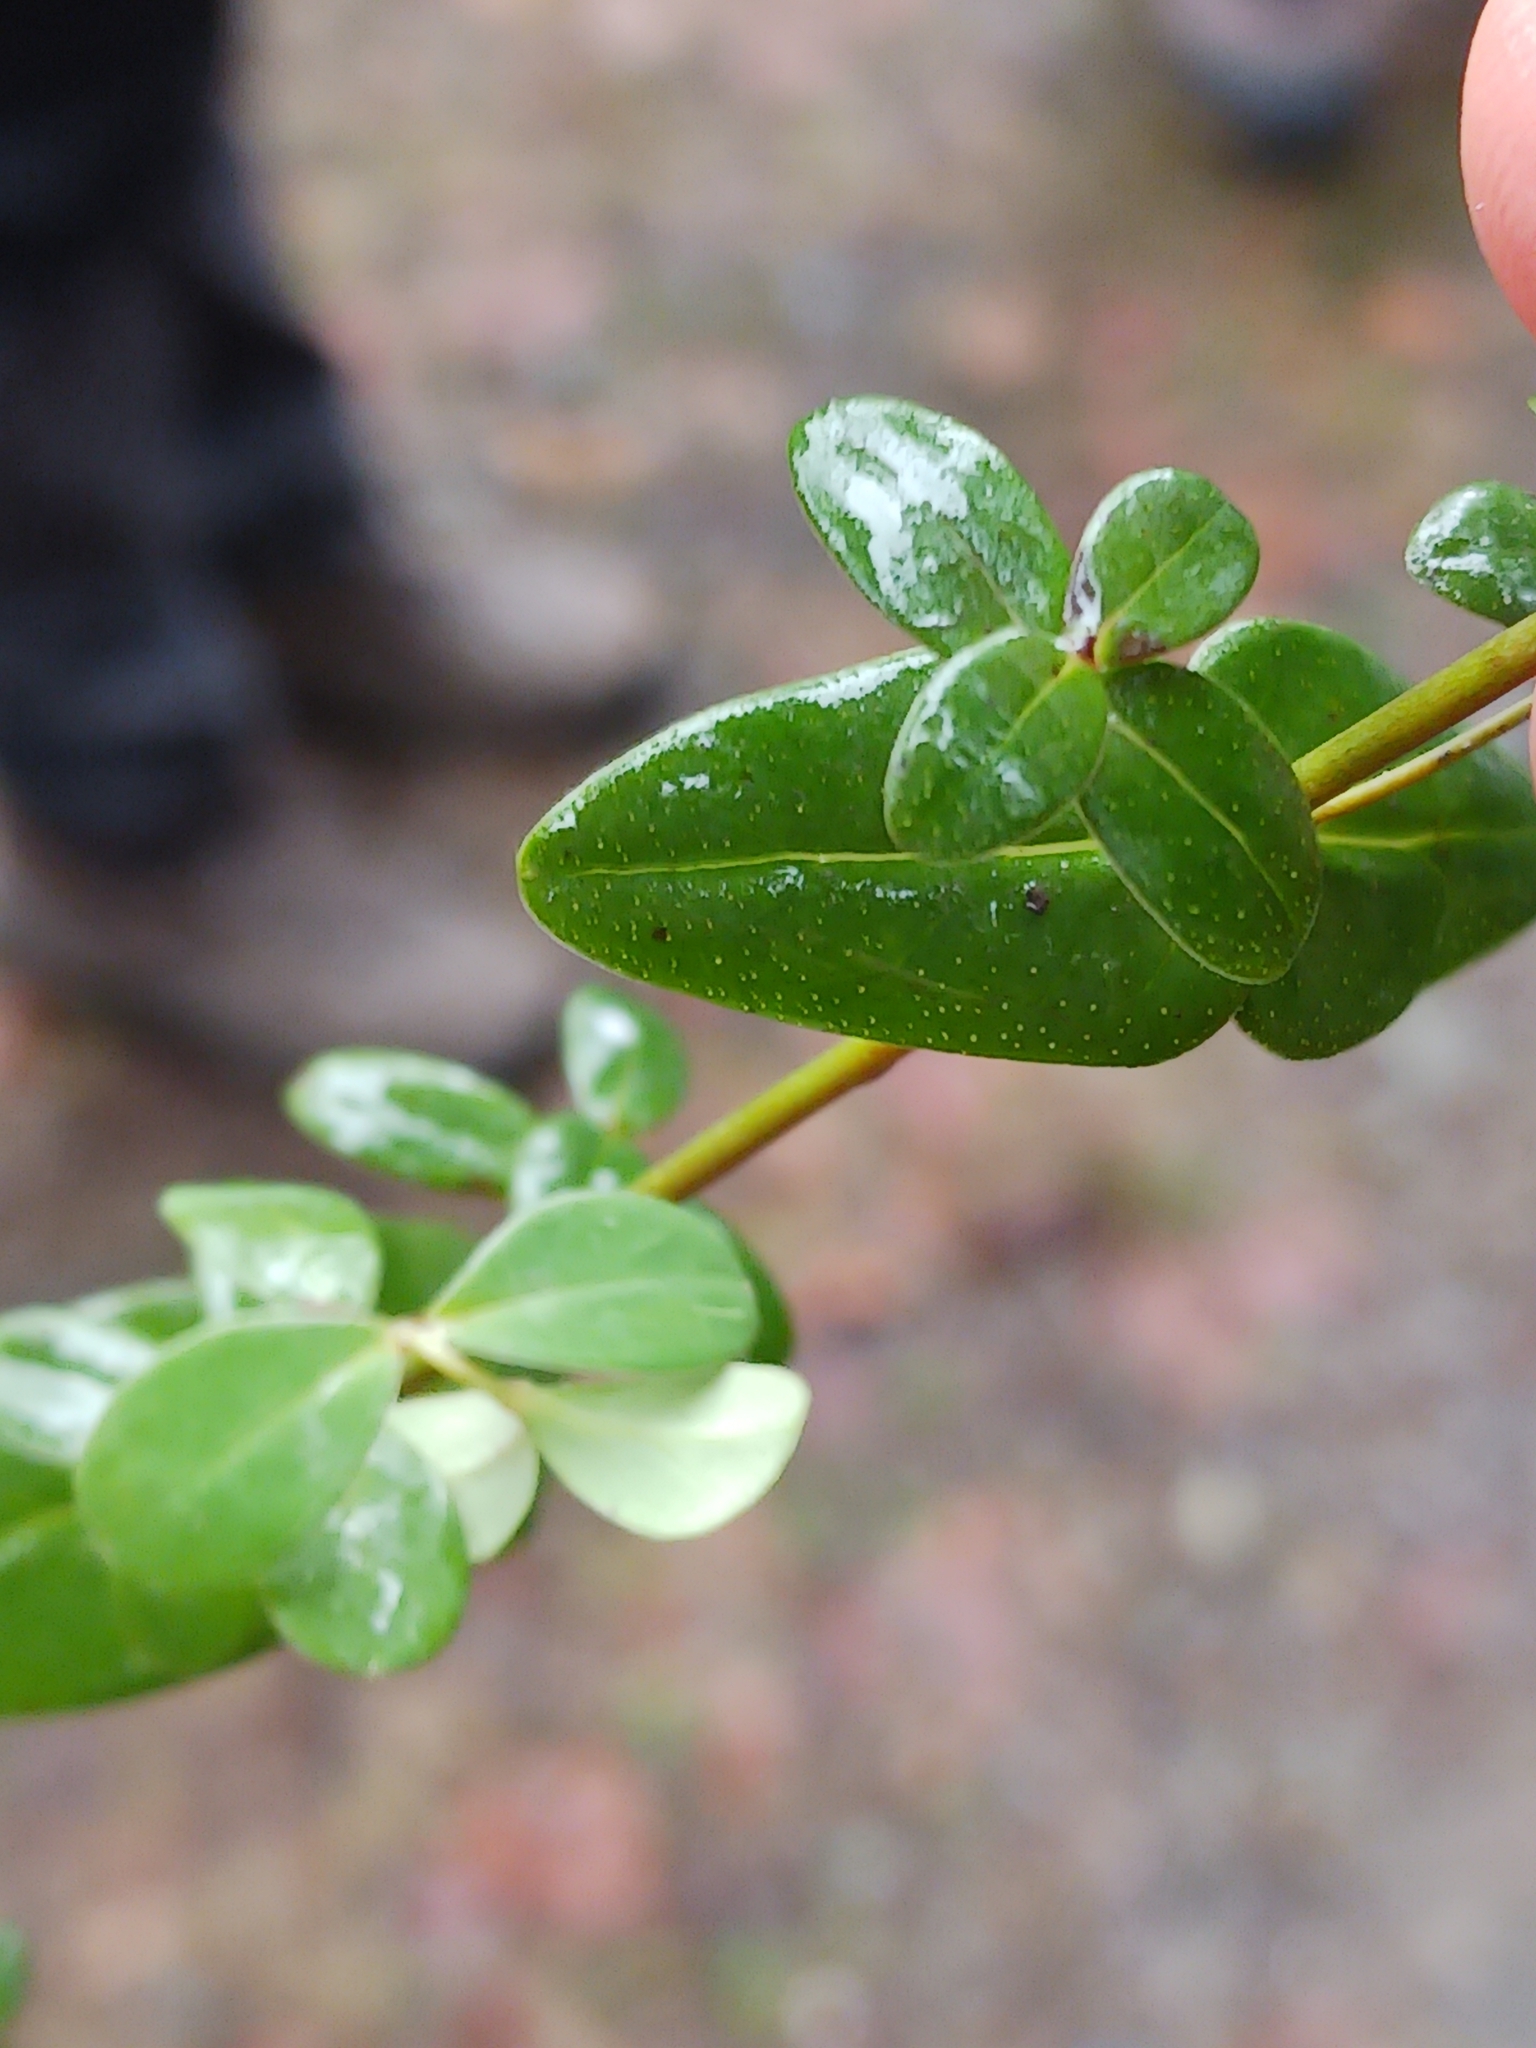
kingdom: Plantae
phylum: Tracheophyta
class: Magnoliopsida
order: Malpighiales
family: Hypericaceae
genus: Hypericum
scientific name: Hypericum pulchrum
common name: Slender st. john's-wort
